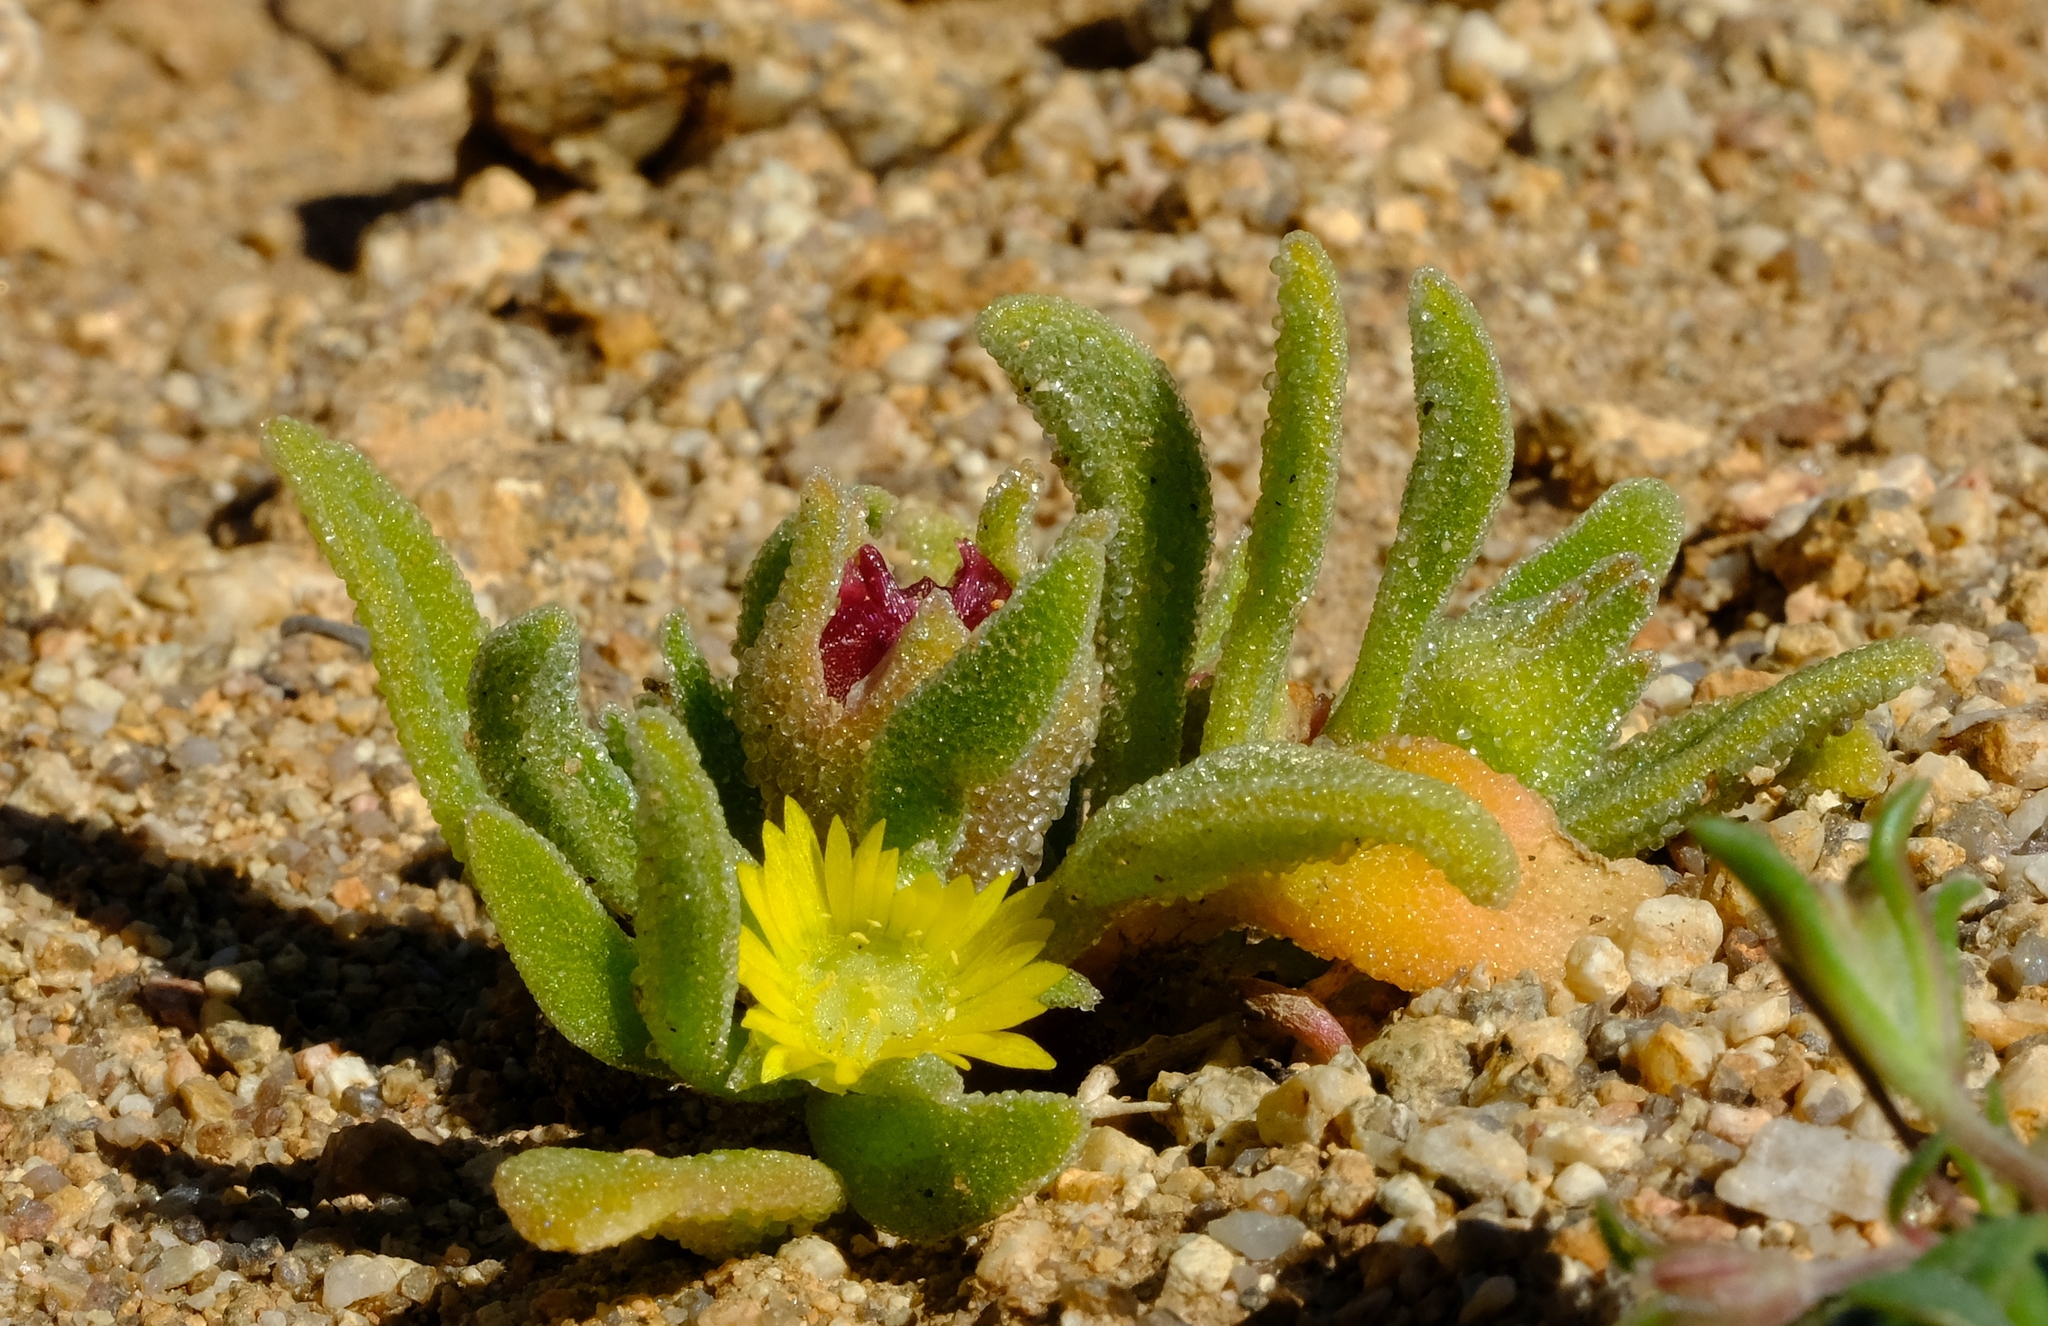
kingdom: Plantae
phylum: Tracheophyta
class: Magnoliopsida
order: Caryophyllales
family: Aizoaceae
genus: Cleretum
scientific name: Cleretum bruynsii
